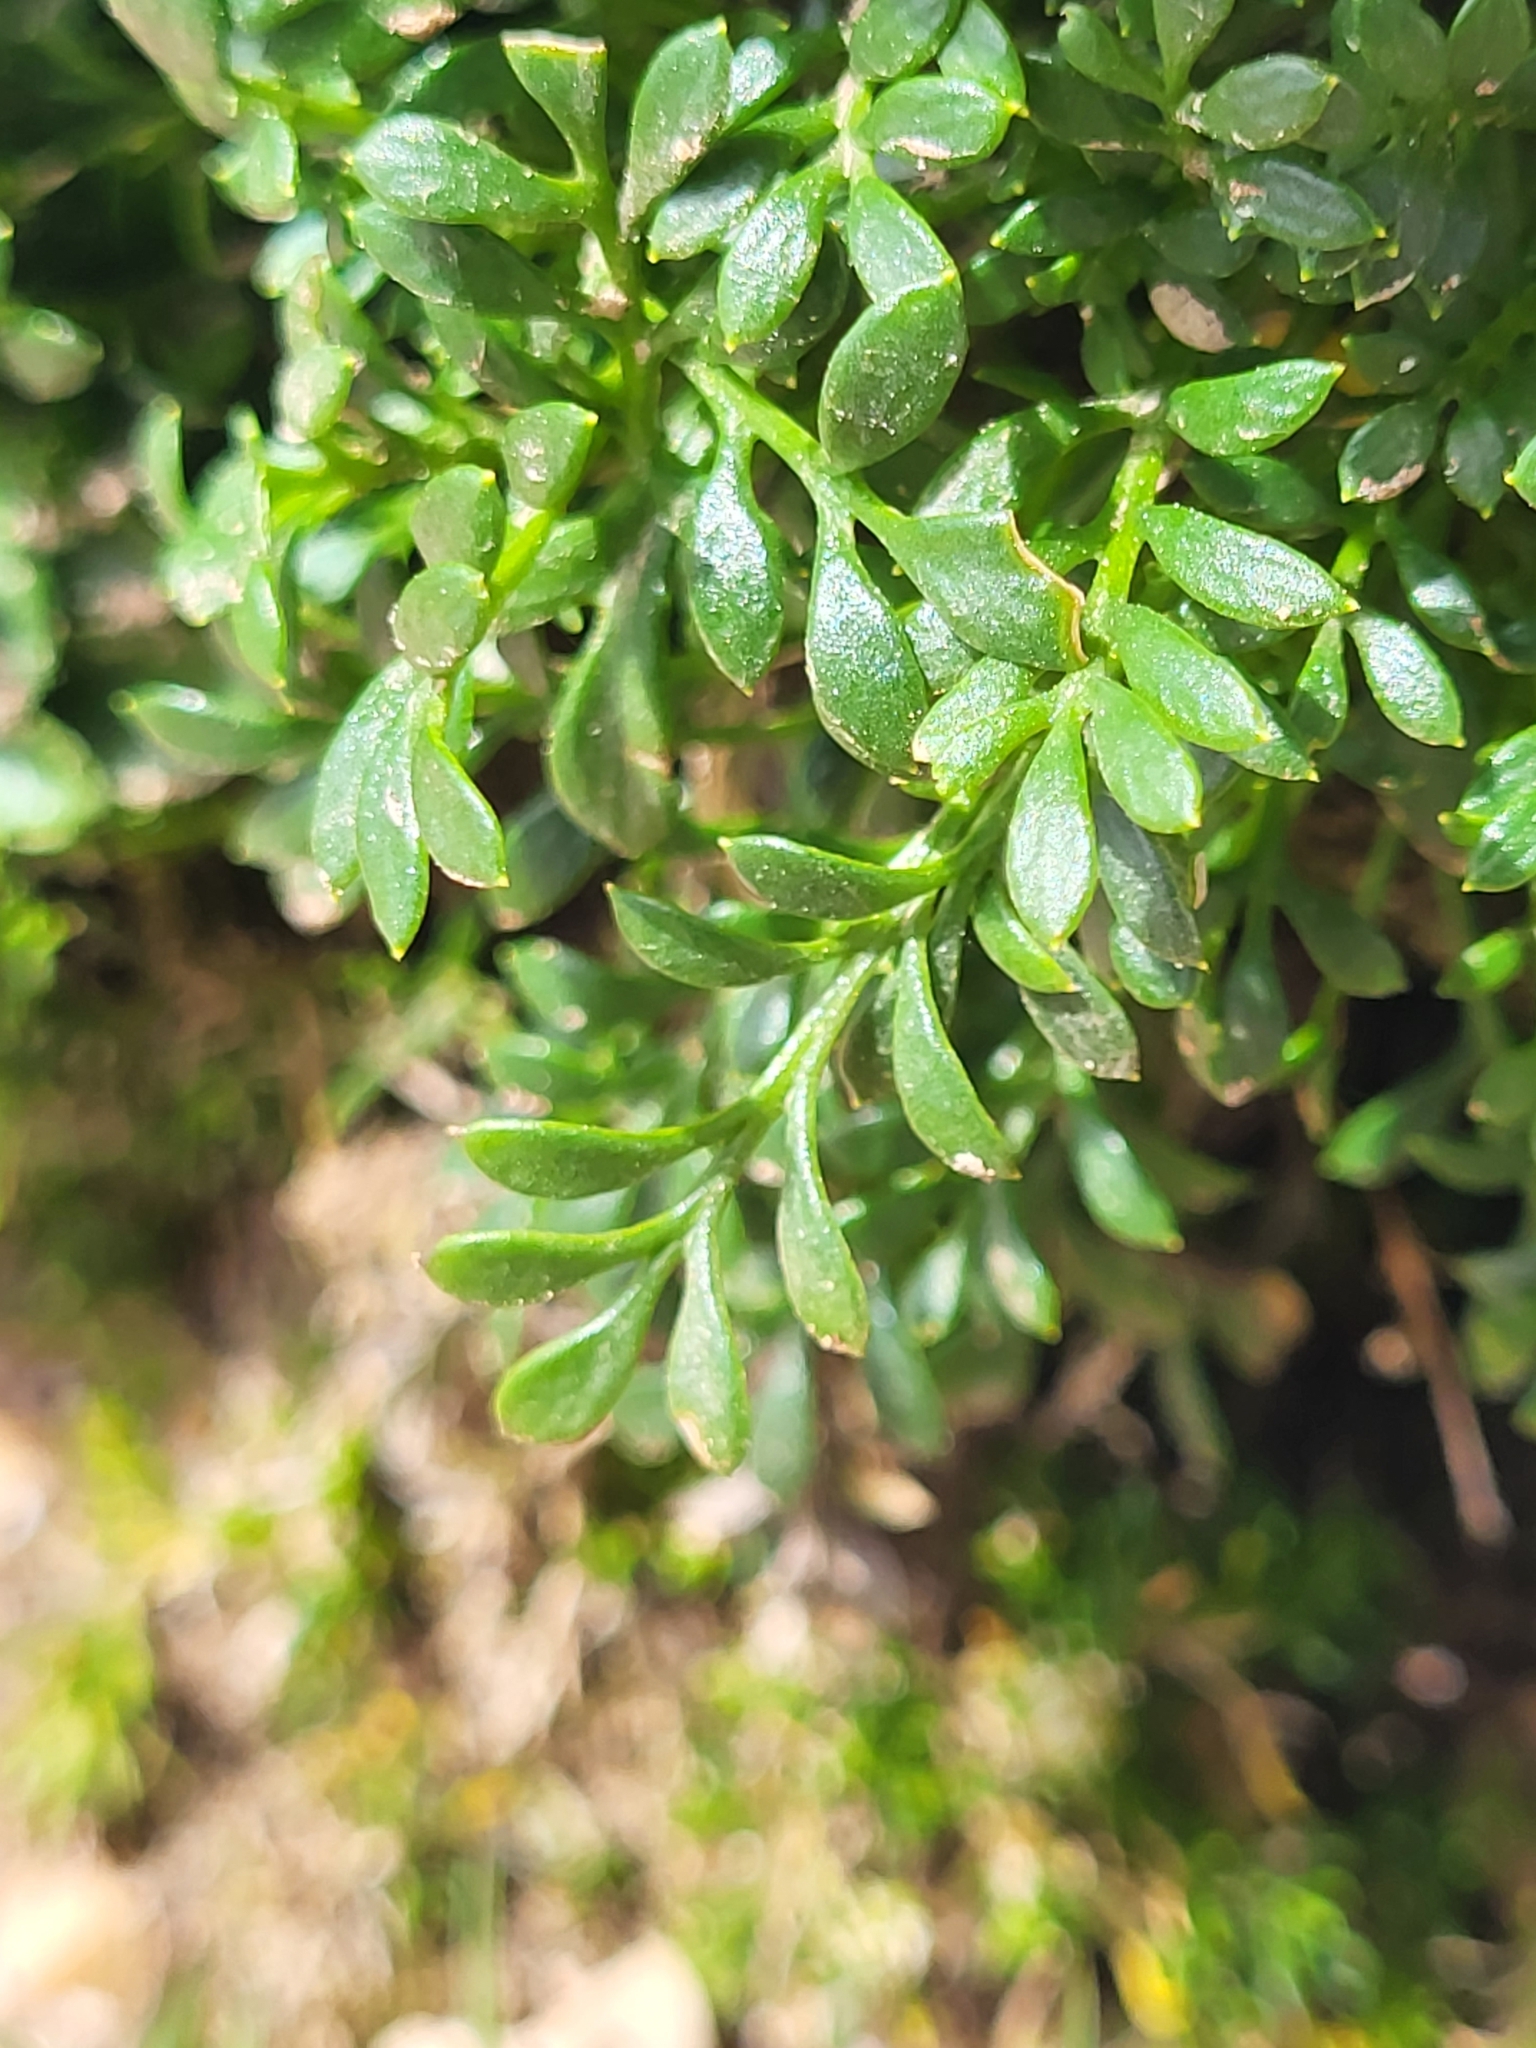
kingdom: Plantae
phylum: Tracheophyta
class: Magnoliopsida
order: Brassicales
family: Brassicaceae
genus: Hornungia
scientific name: Hornungia alpina
